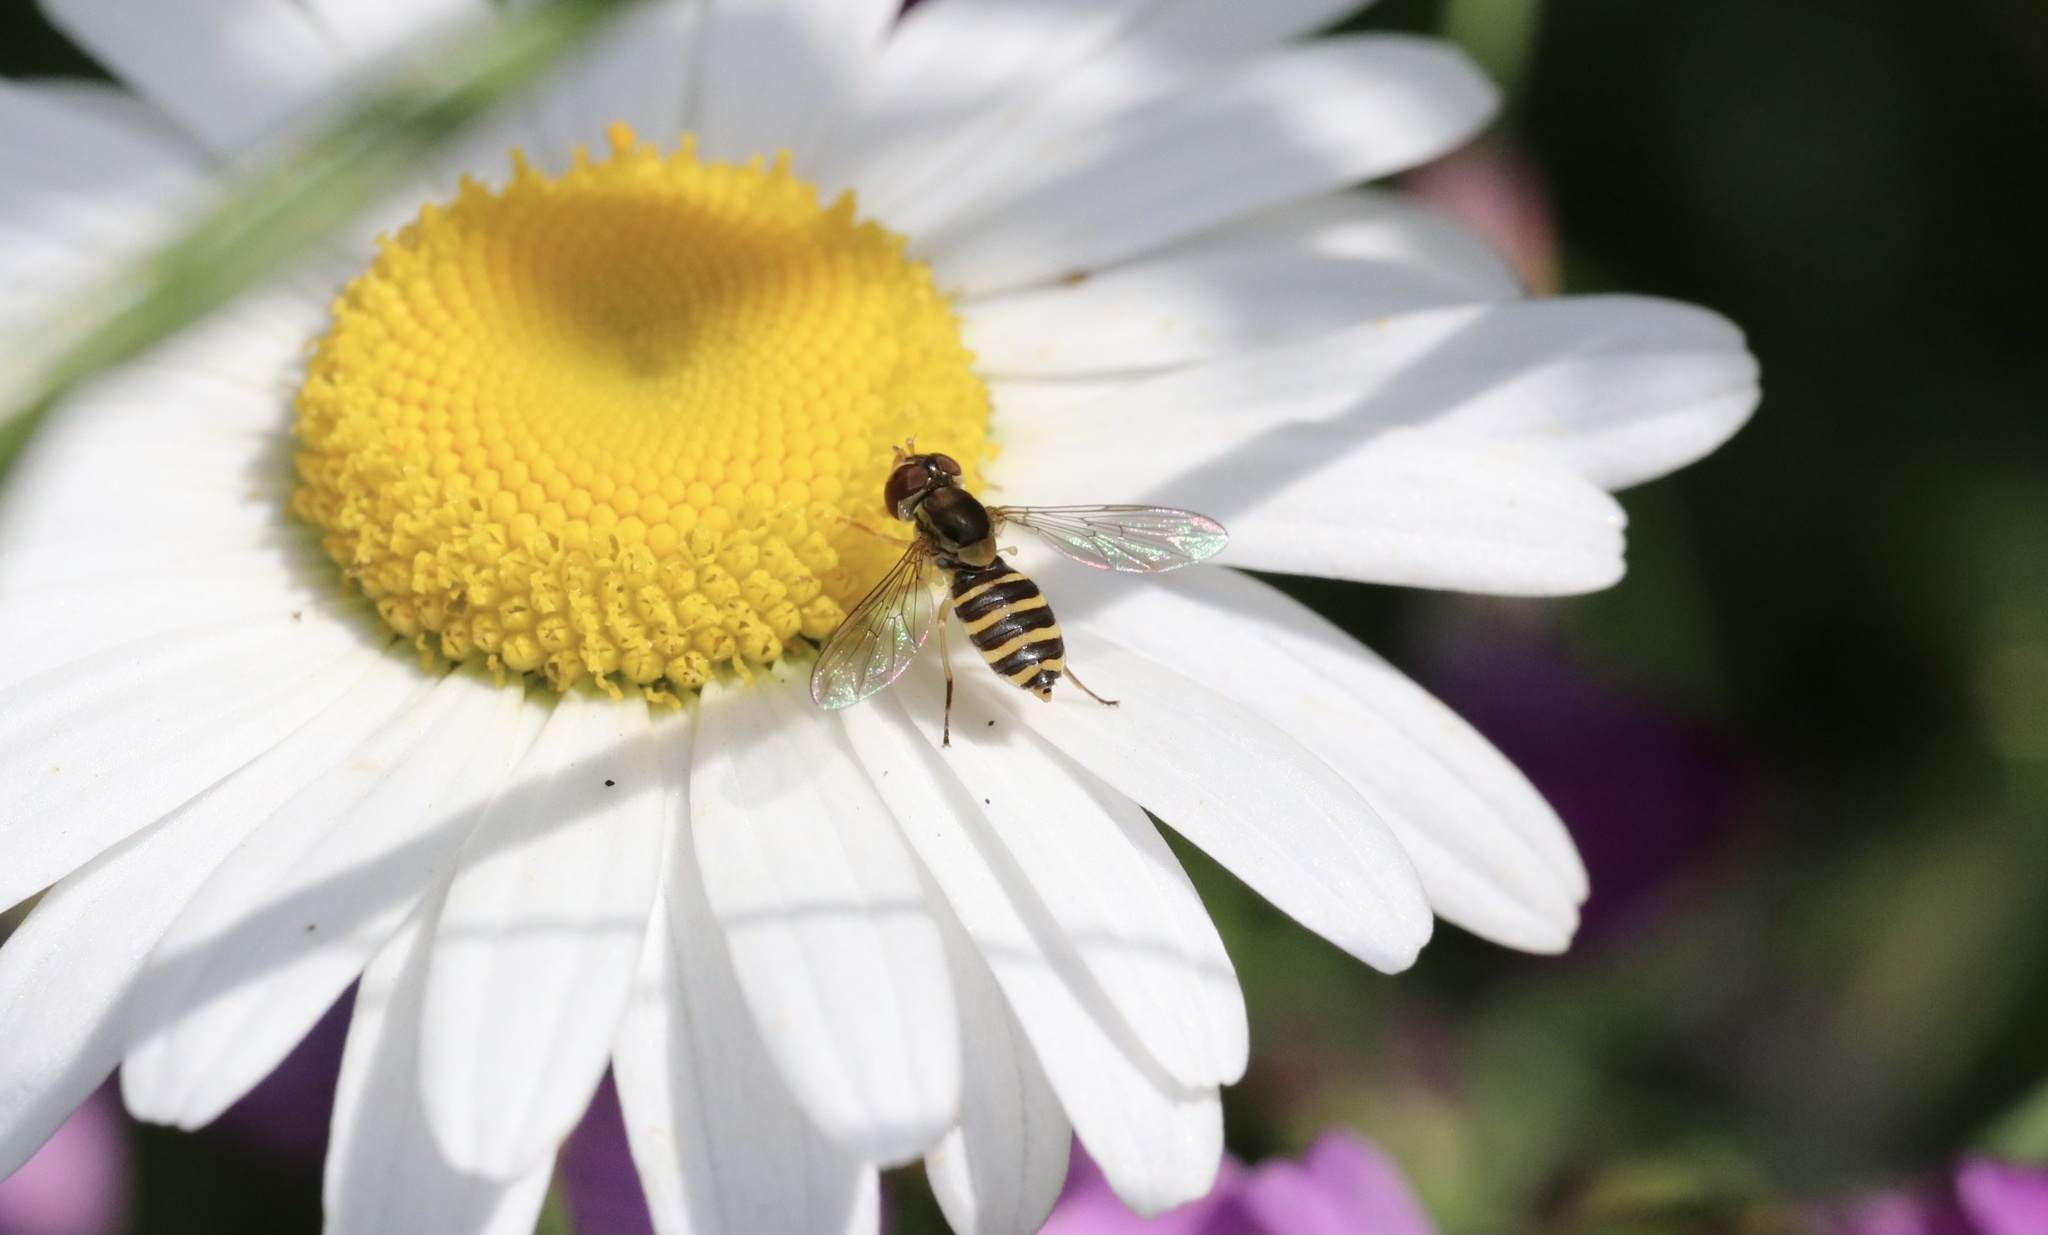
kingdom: Animalia
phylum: Arthropoda
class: Insecta
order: Diptera
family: Syrphidae
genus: Toxomerus
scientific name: Toxomerus calceolatus
